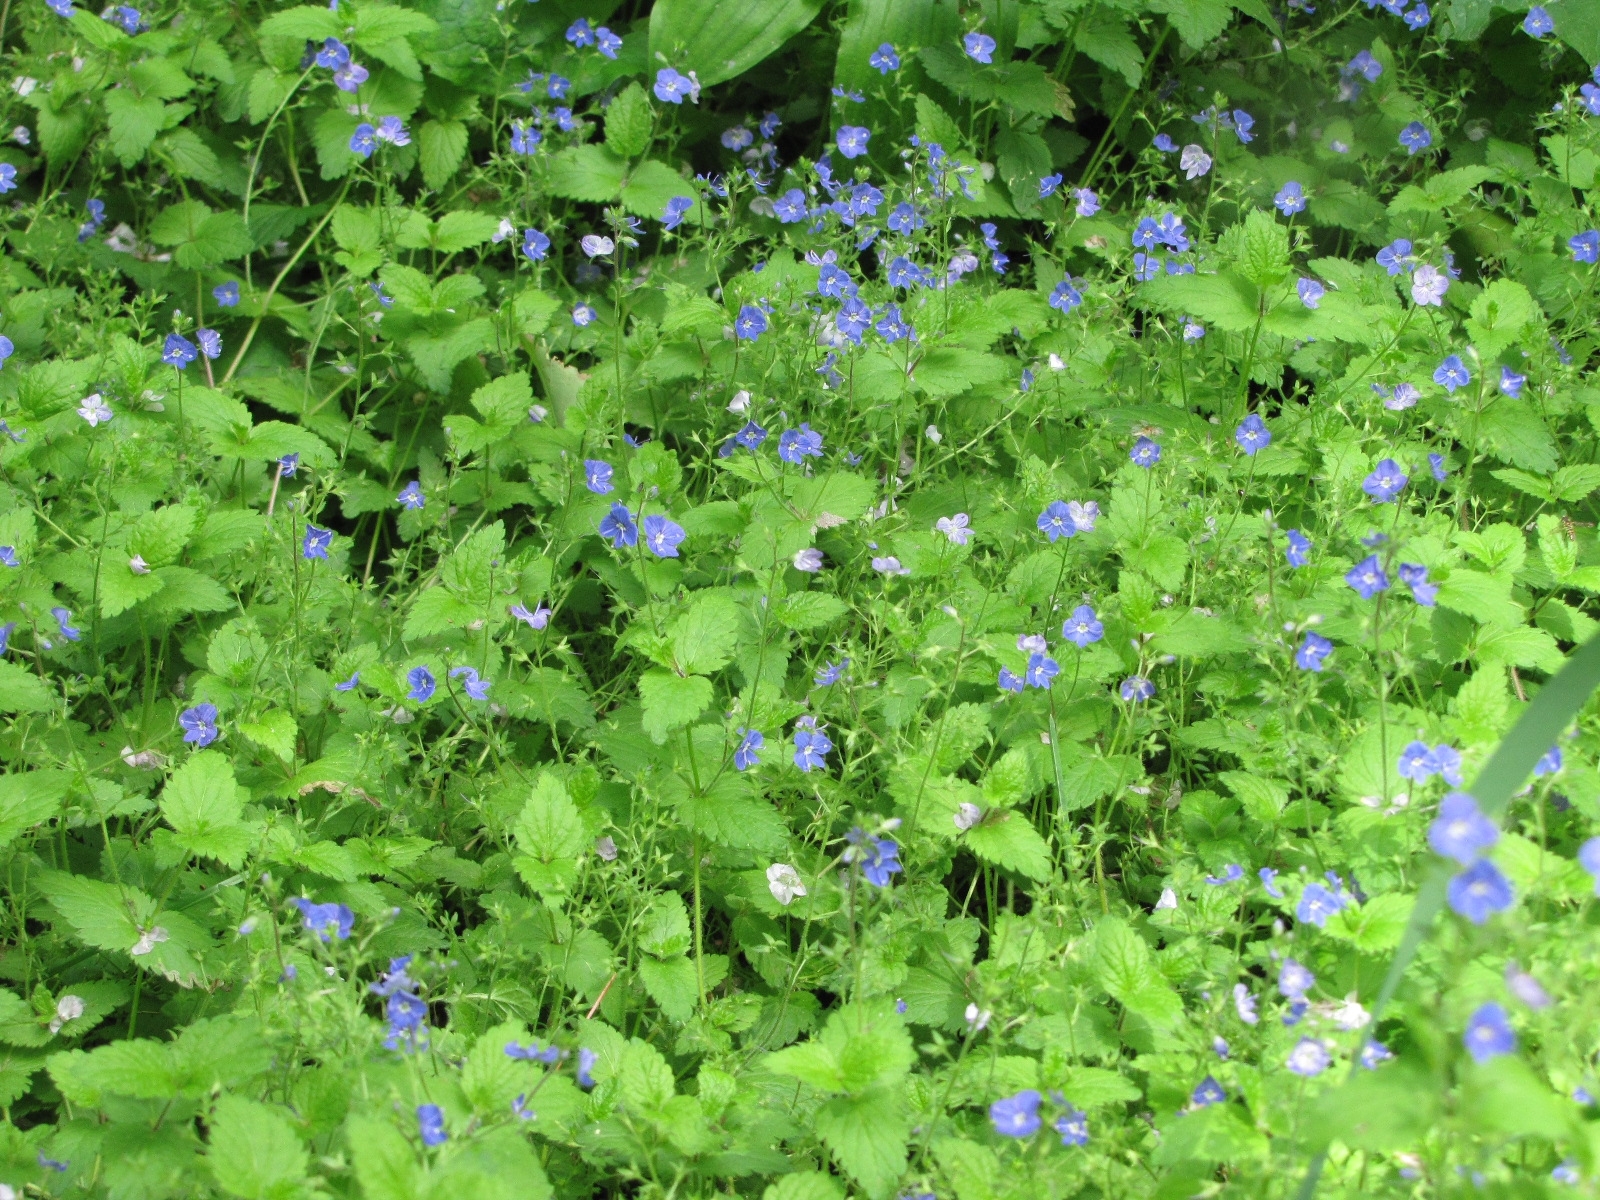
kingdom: Plantae
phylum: Tracheophyta
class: Magnoliopsida
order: Lamiales
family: Plantaginaceae
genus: Veronica
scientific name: Veronica chamaedrys
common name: Germander speedwell
